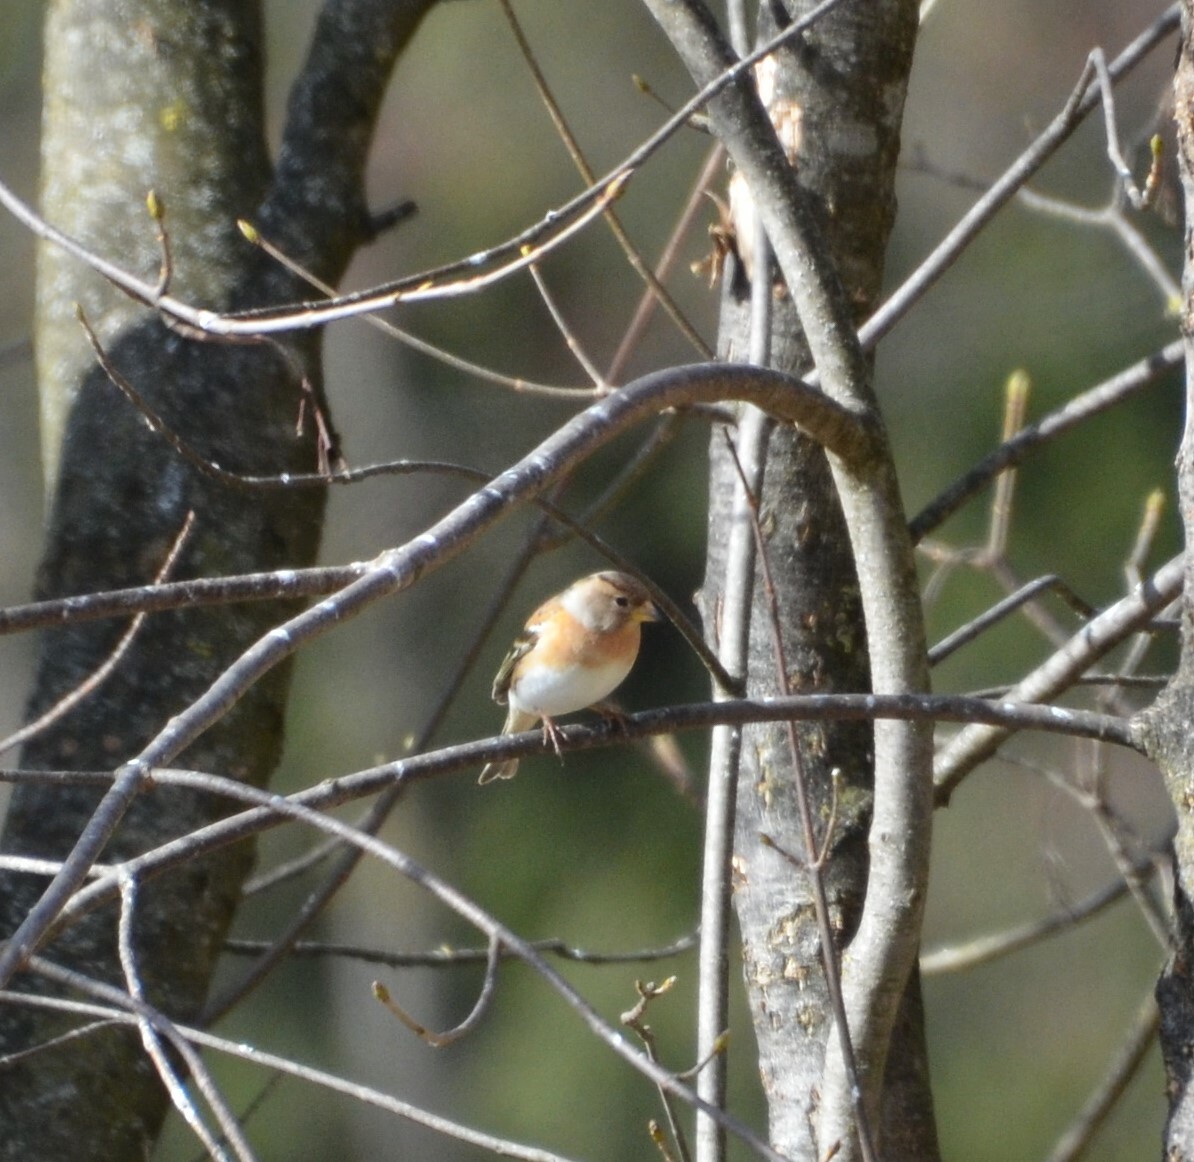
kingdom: Animalia
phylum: Chordata
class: Aves
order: Passeriformes
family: Fringillidae
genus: Fringilla
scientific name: Fringilla montifringilla
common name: Brambling
